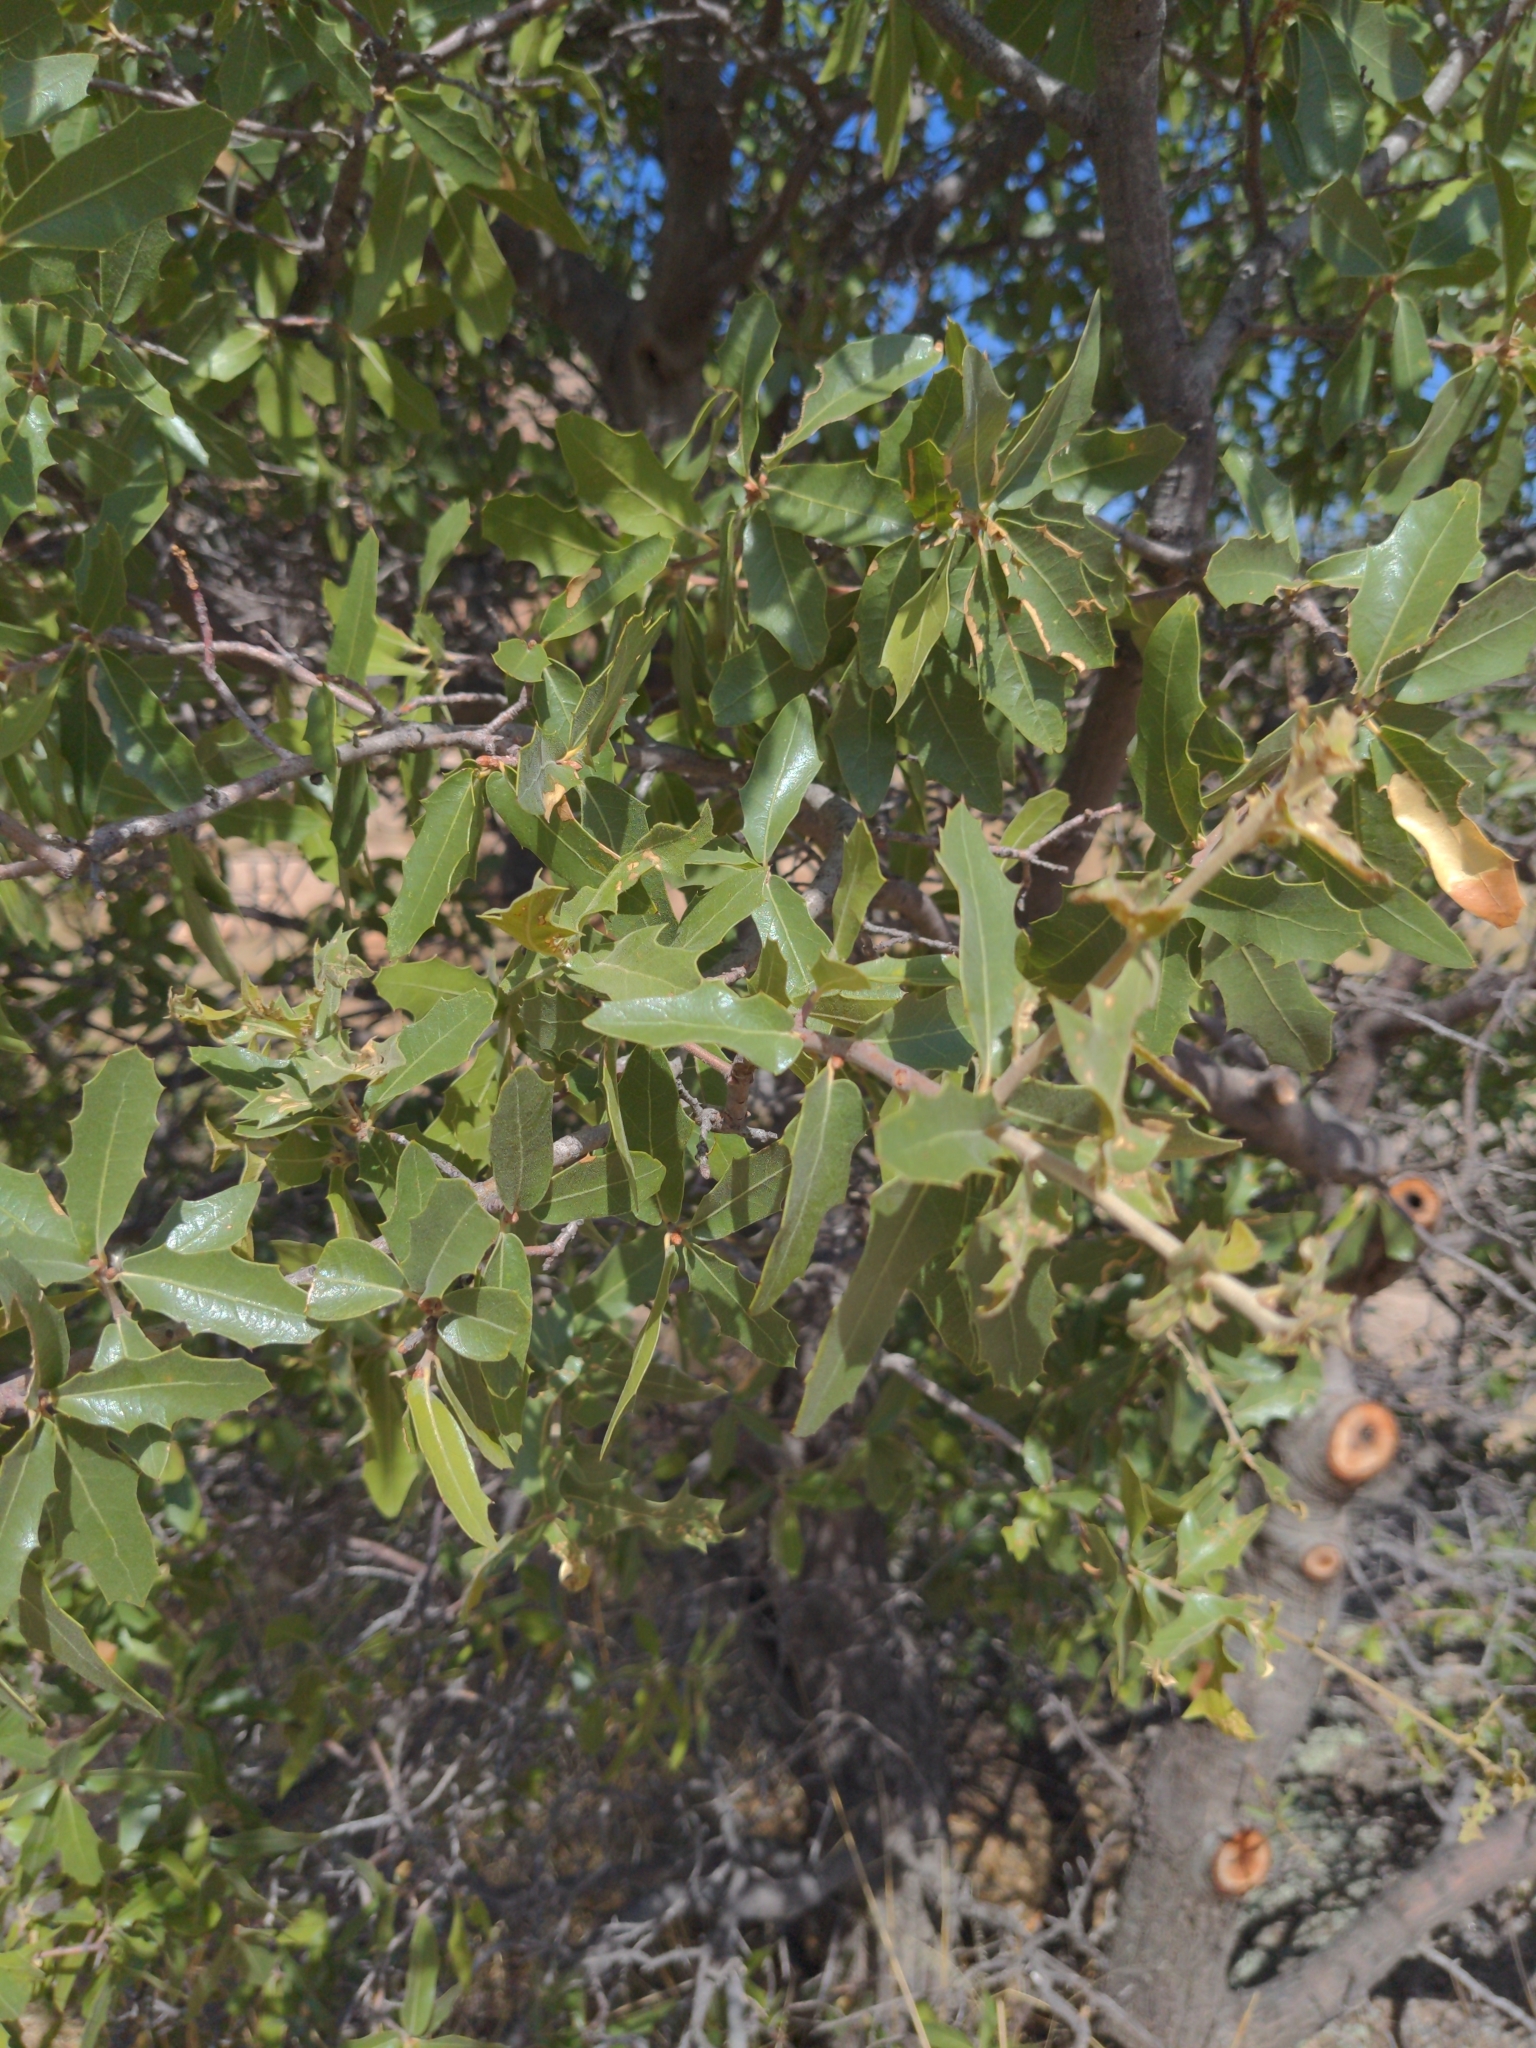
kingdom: Plantae
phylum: Tracheophyta
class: Magnoliopsida
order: Fagales
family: Fagaceae
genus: Quercus
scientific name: Quercus emoryi
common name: Emory oak
